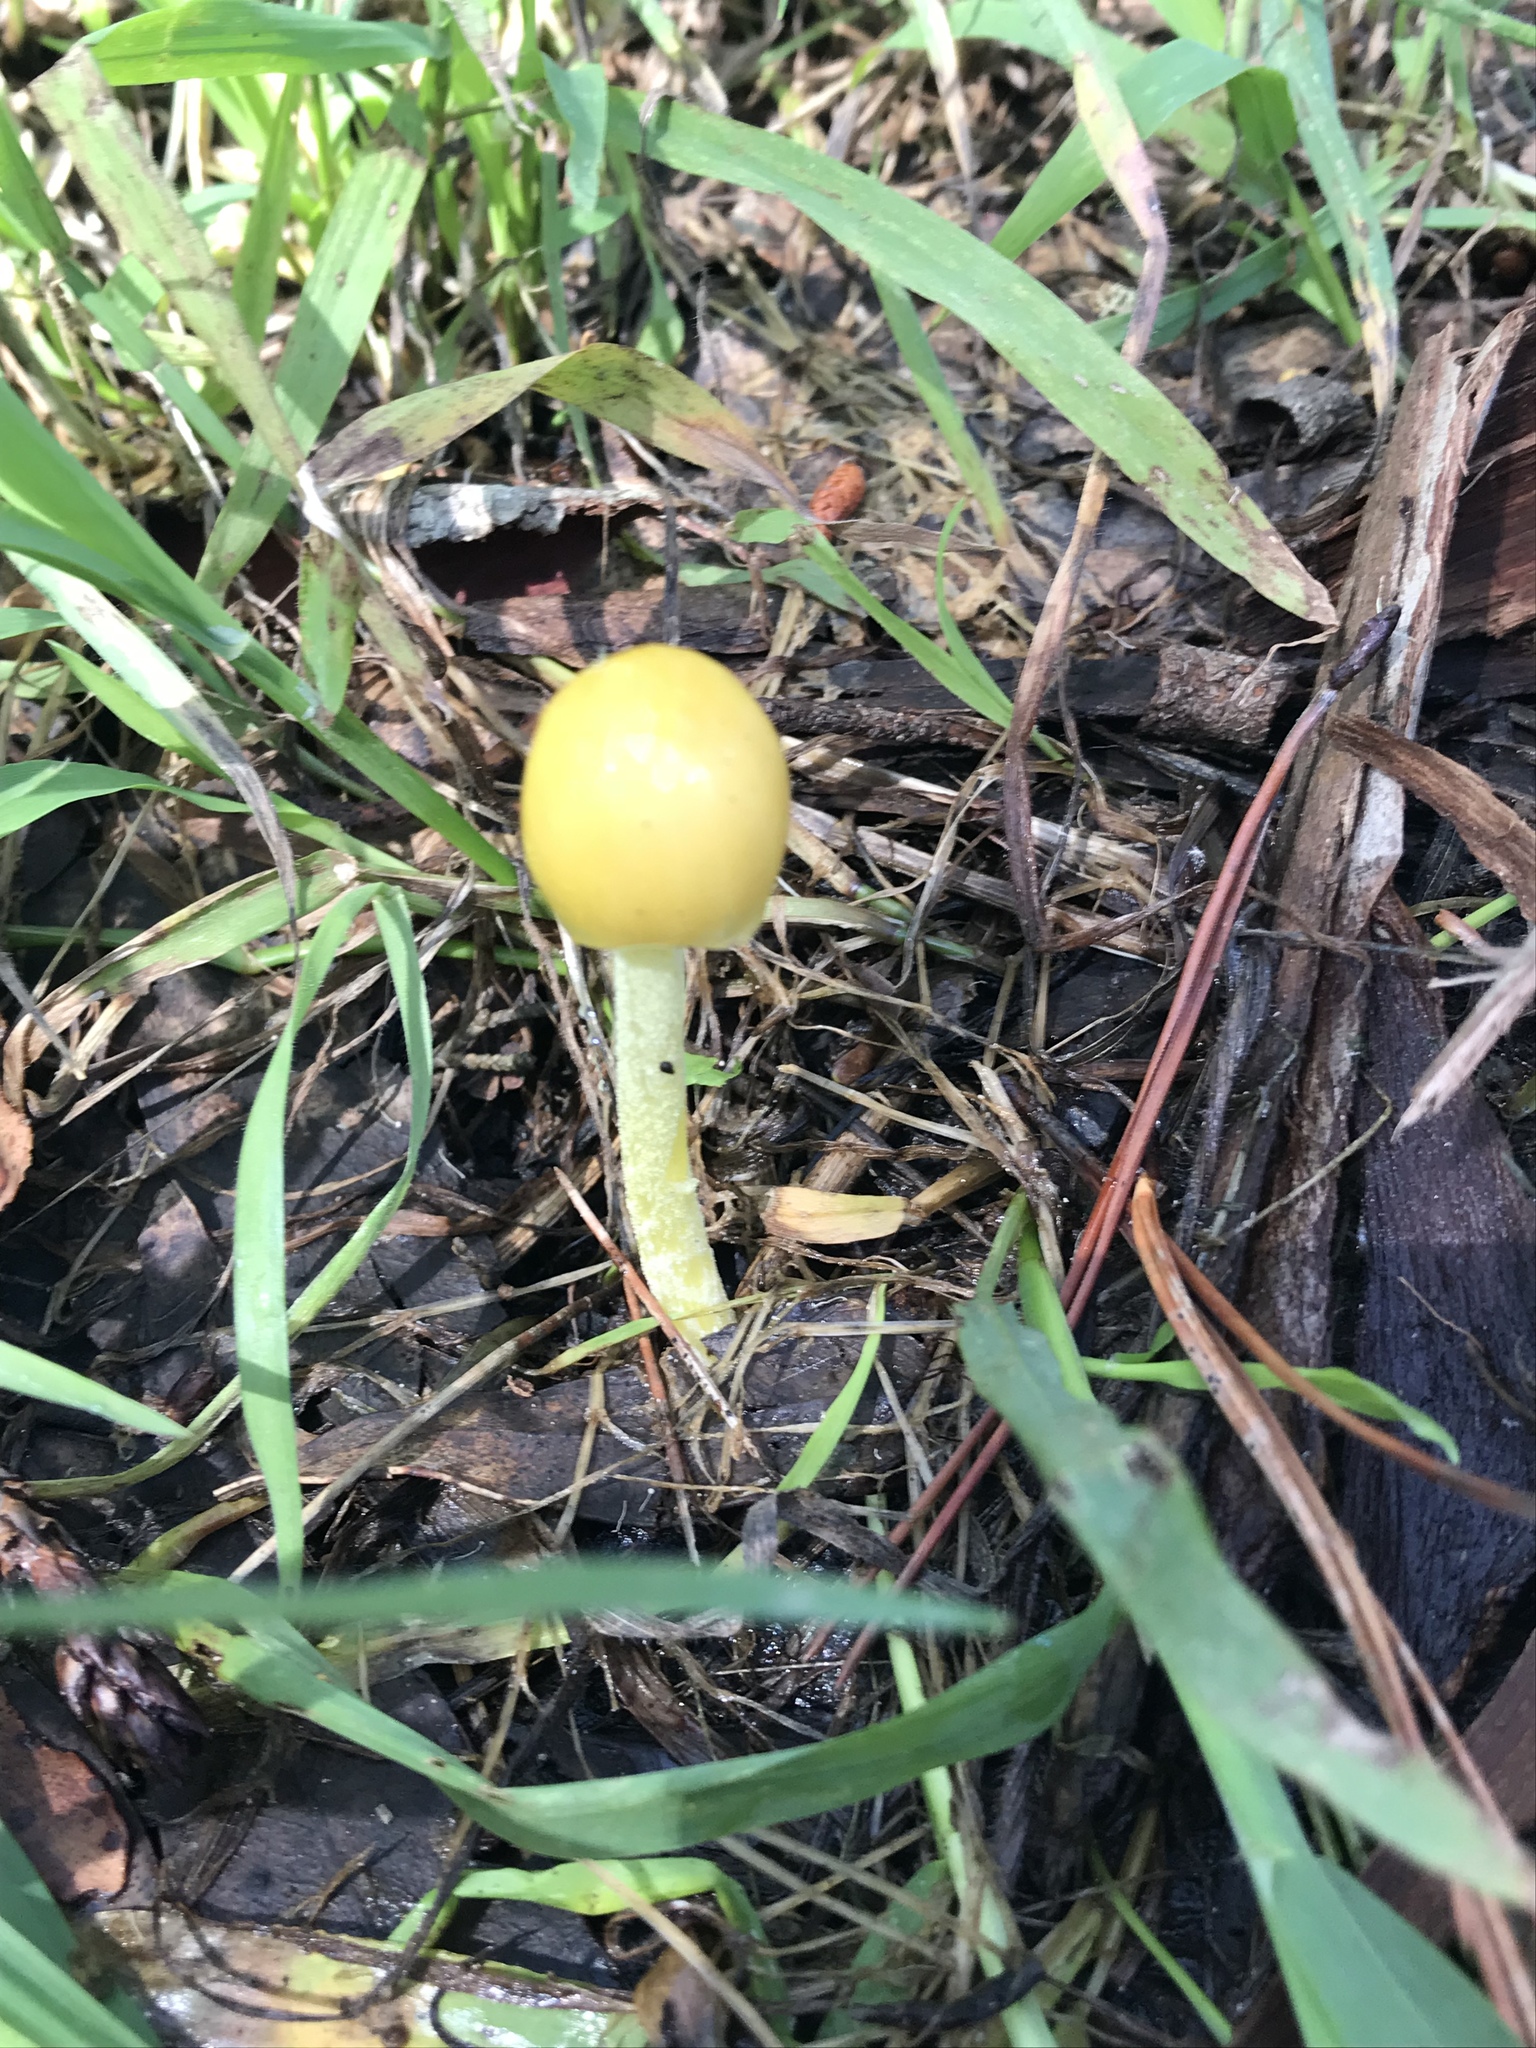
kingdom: Fungi
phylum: Basidiomycota
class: Agaricomycetes
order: Agaricales
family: Bolbitiaceae
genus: Bolbitius
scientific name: Bolbitius titubans
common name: Yellow fieldcap
